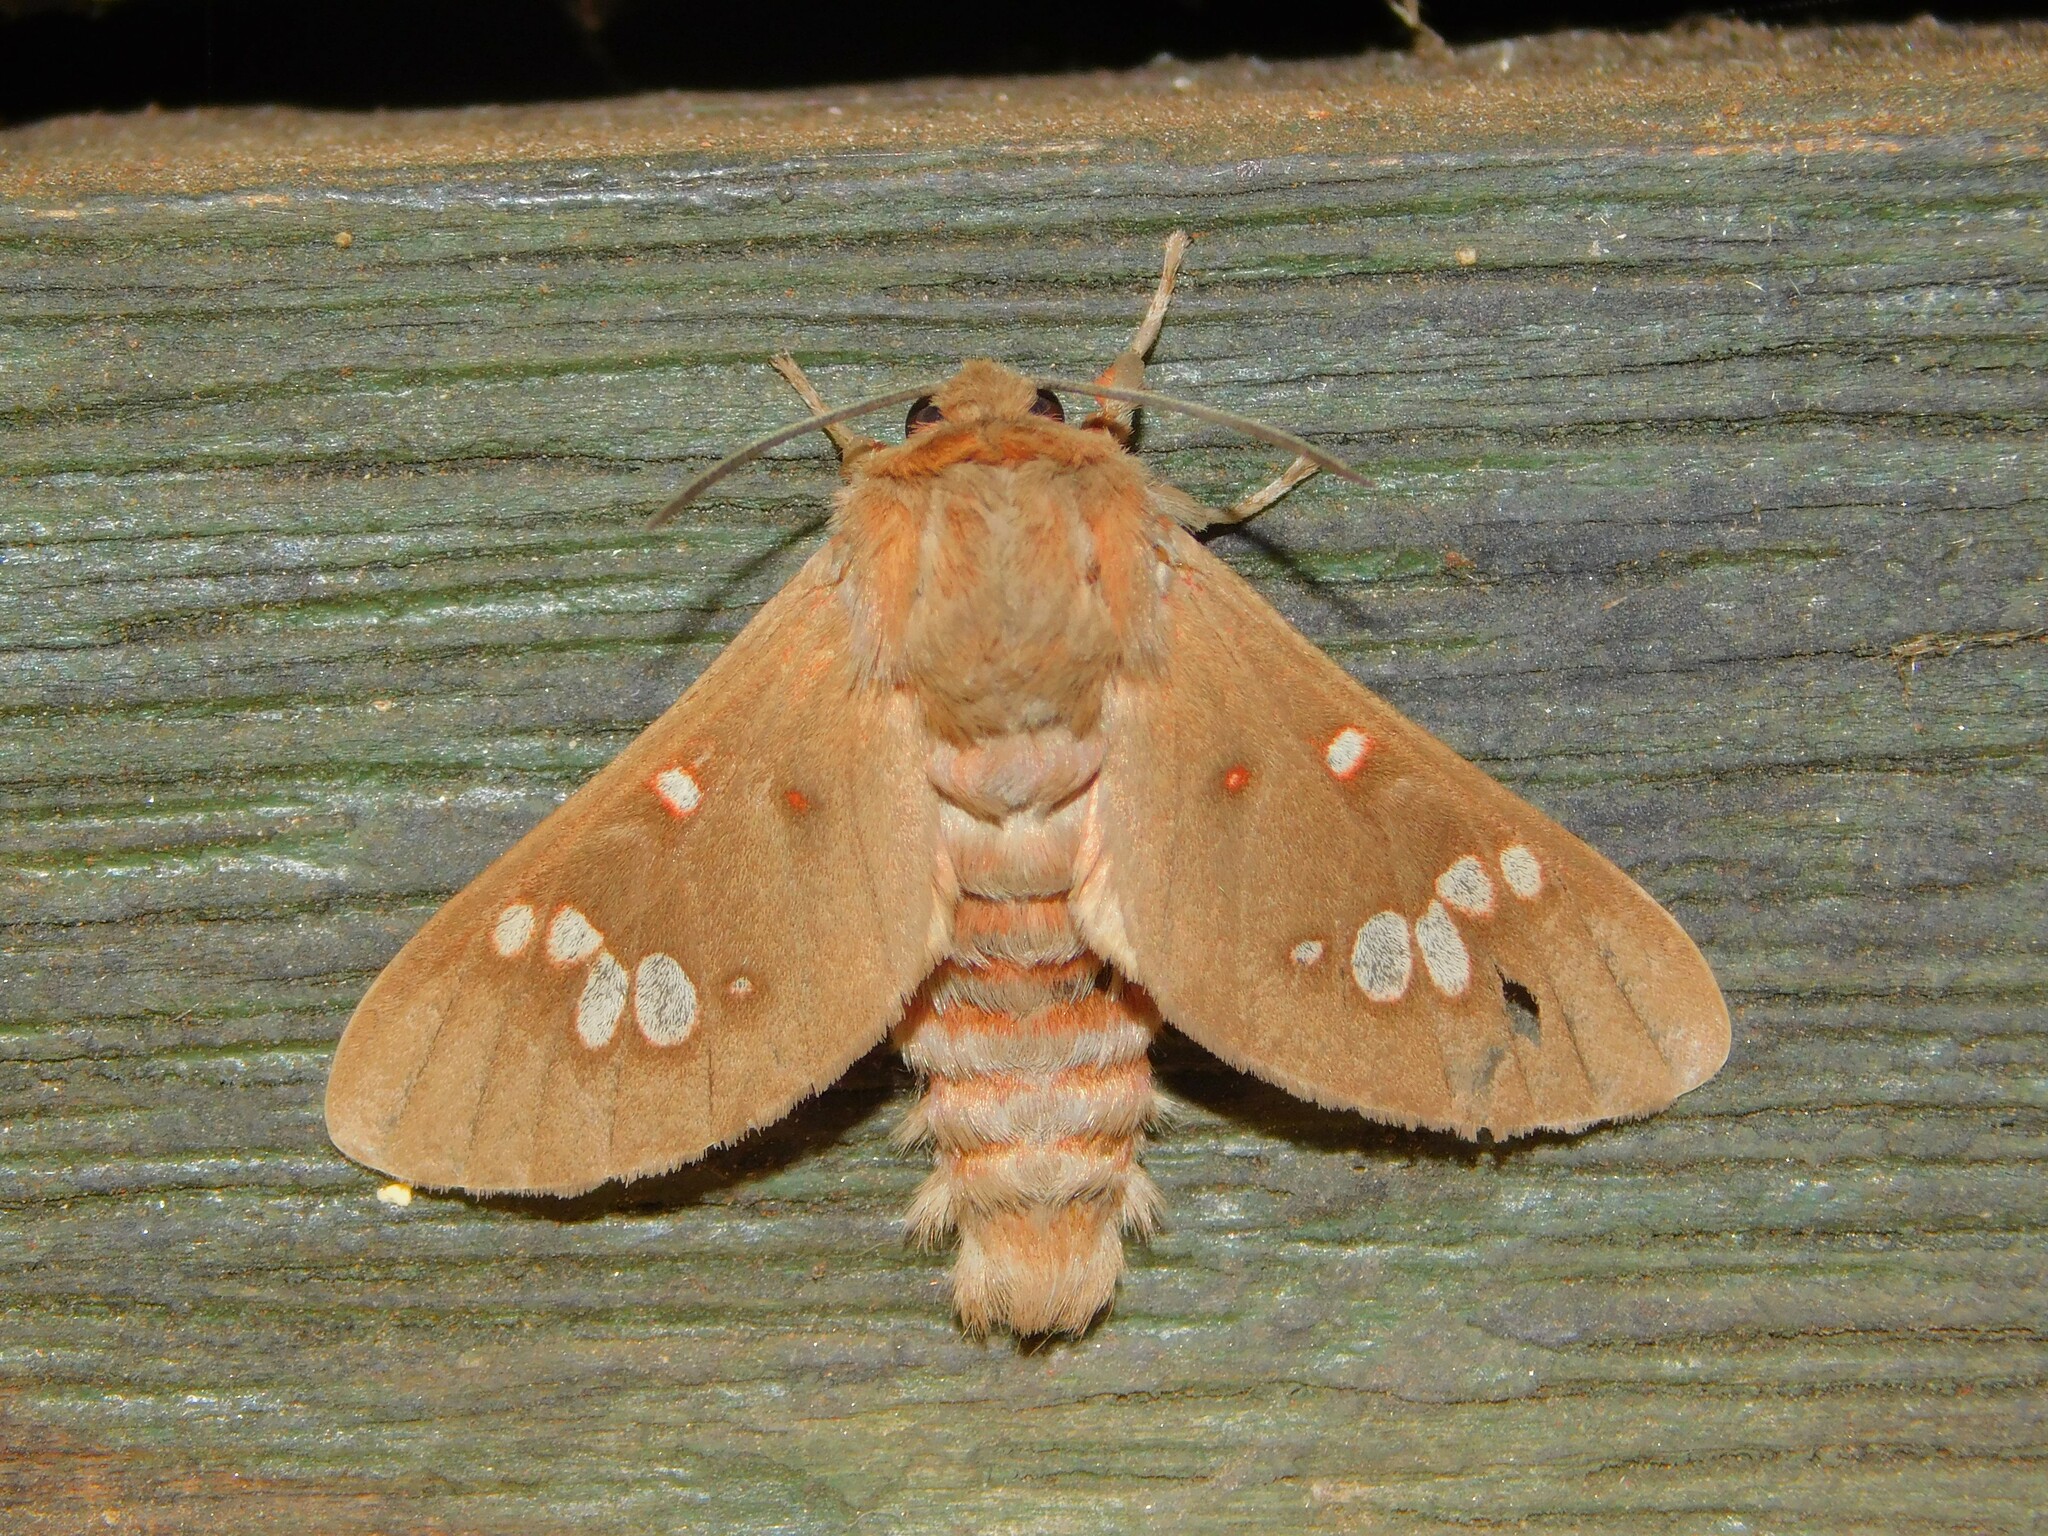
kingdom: Animalia
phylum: Arthropoda
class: Insecta
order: Lepidoptera
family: Erebidae
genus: Balacra
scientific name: Balacra preussi
